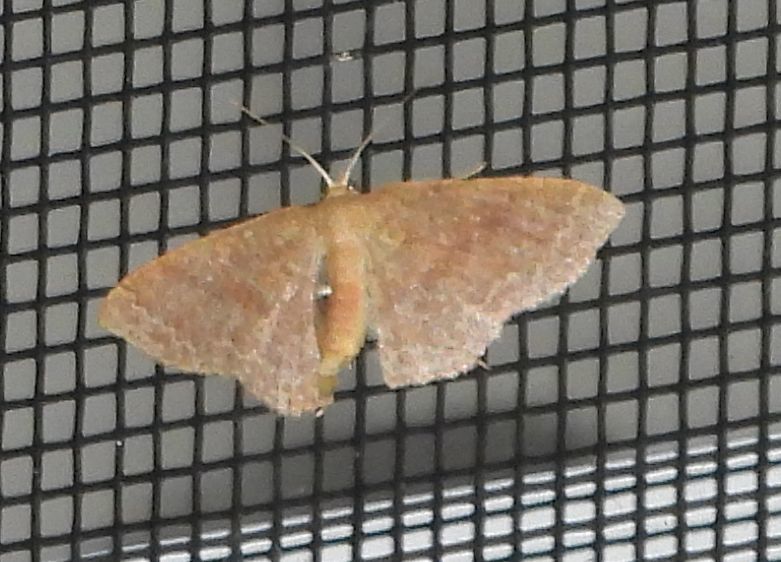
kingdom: Animalia
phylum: Arthropoda
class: Insecta
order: Lepidoptera
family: Geometridae
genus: Pleuroprucha
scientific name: Pleuroprucha insulsaria
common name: Common tan wave
